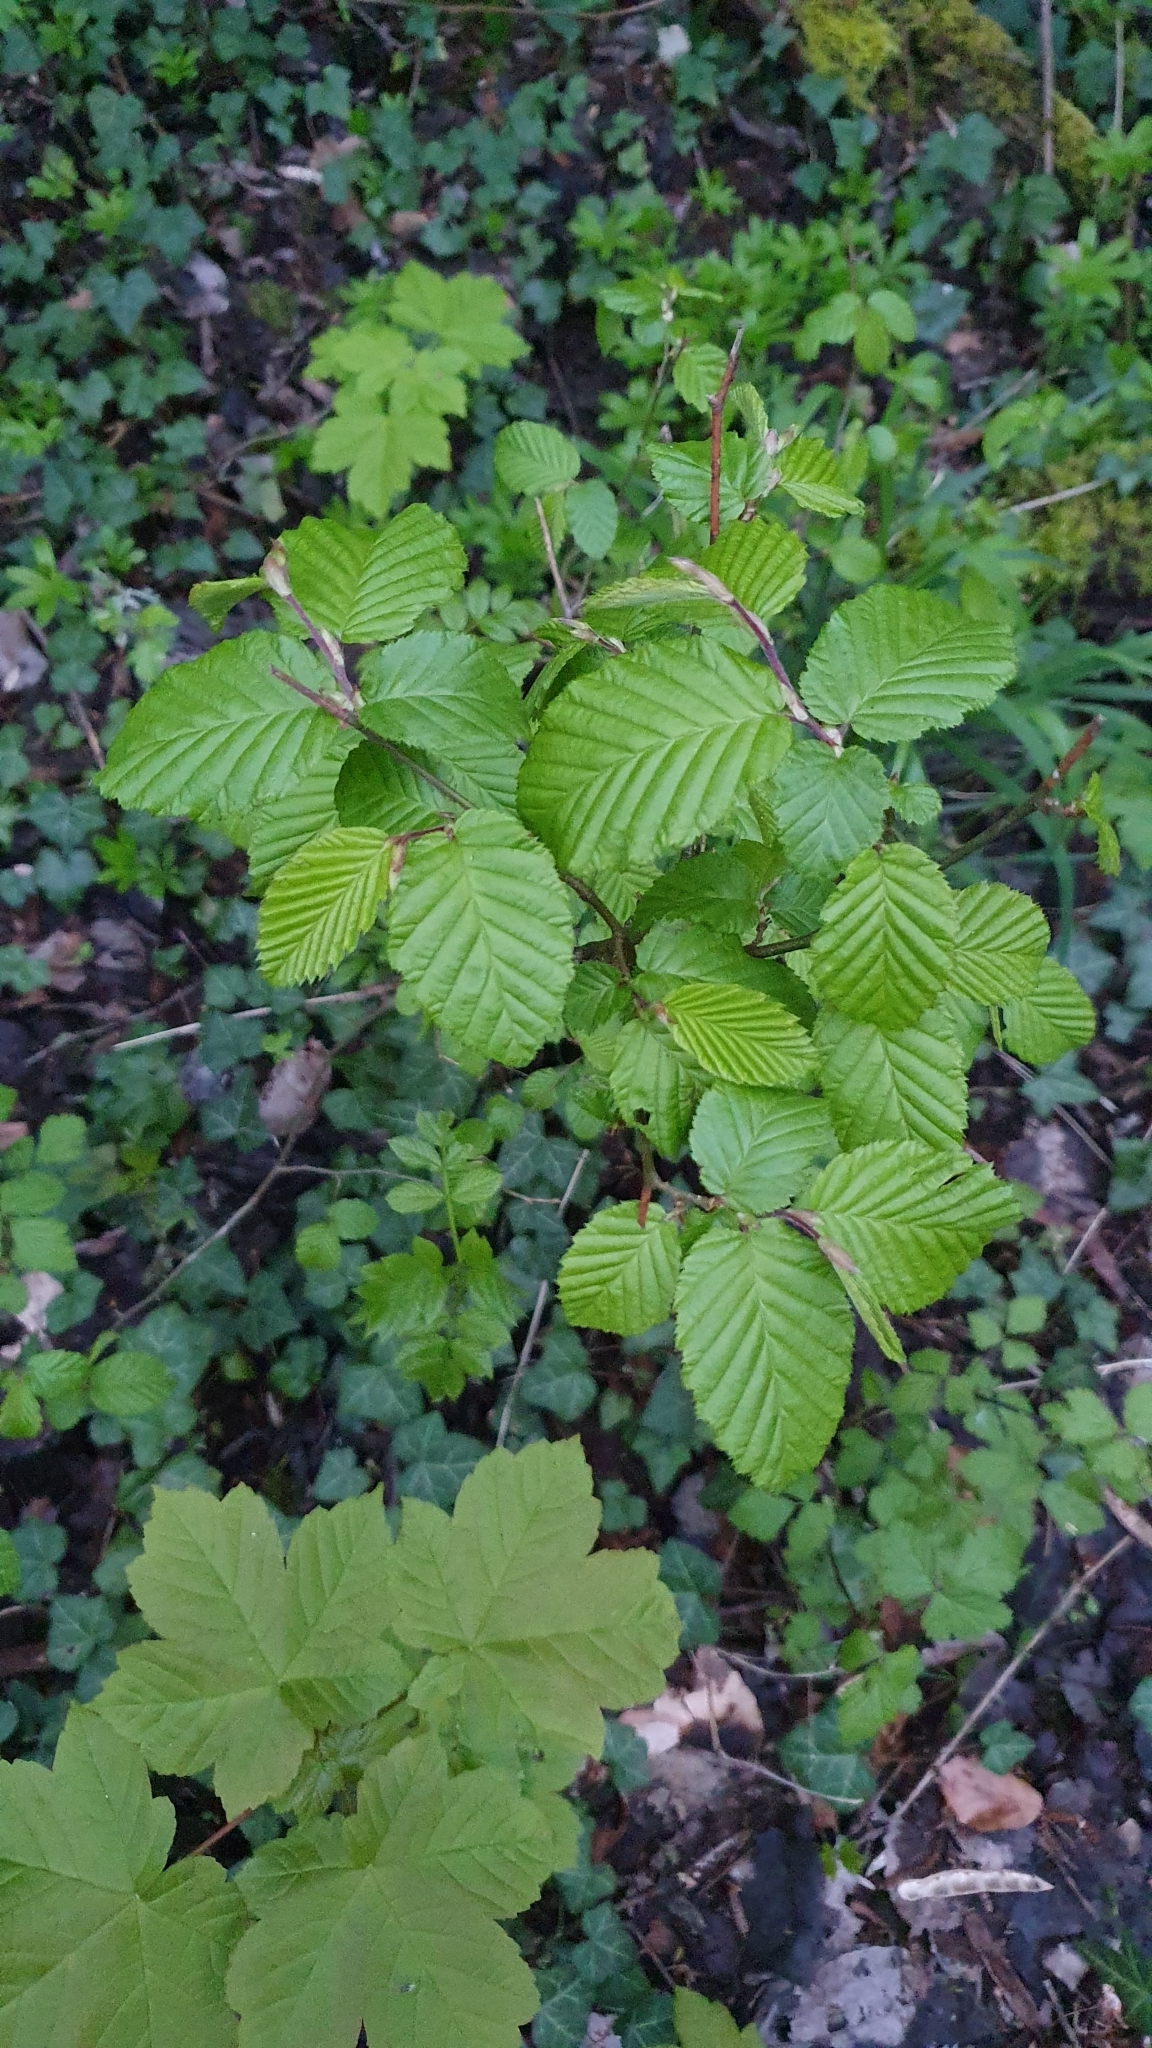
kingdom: Plantae
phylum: Tracheophyta
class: Magnoliopsida
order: Fagales
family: Betulaceae
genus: Carpinus
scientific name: Carpinus betulus
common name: Hornbeam
